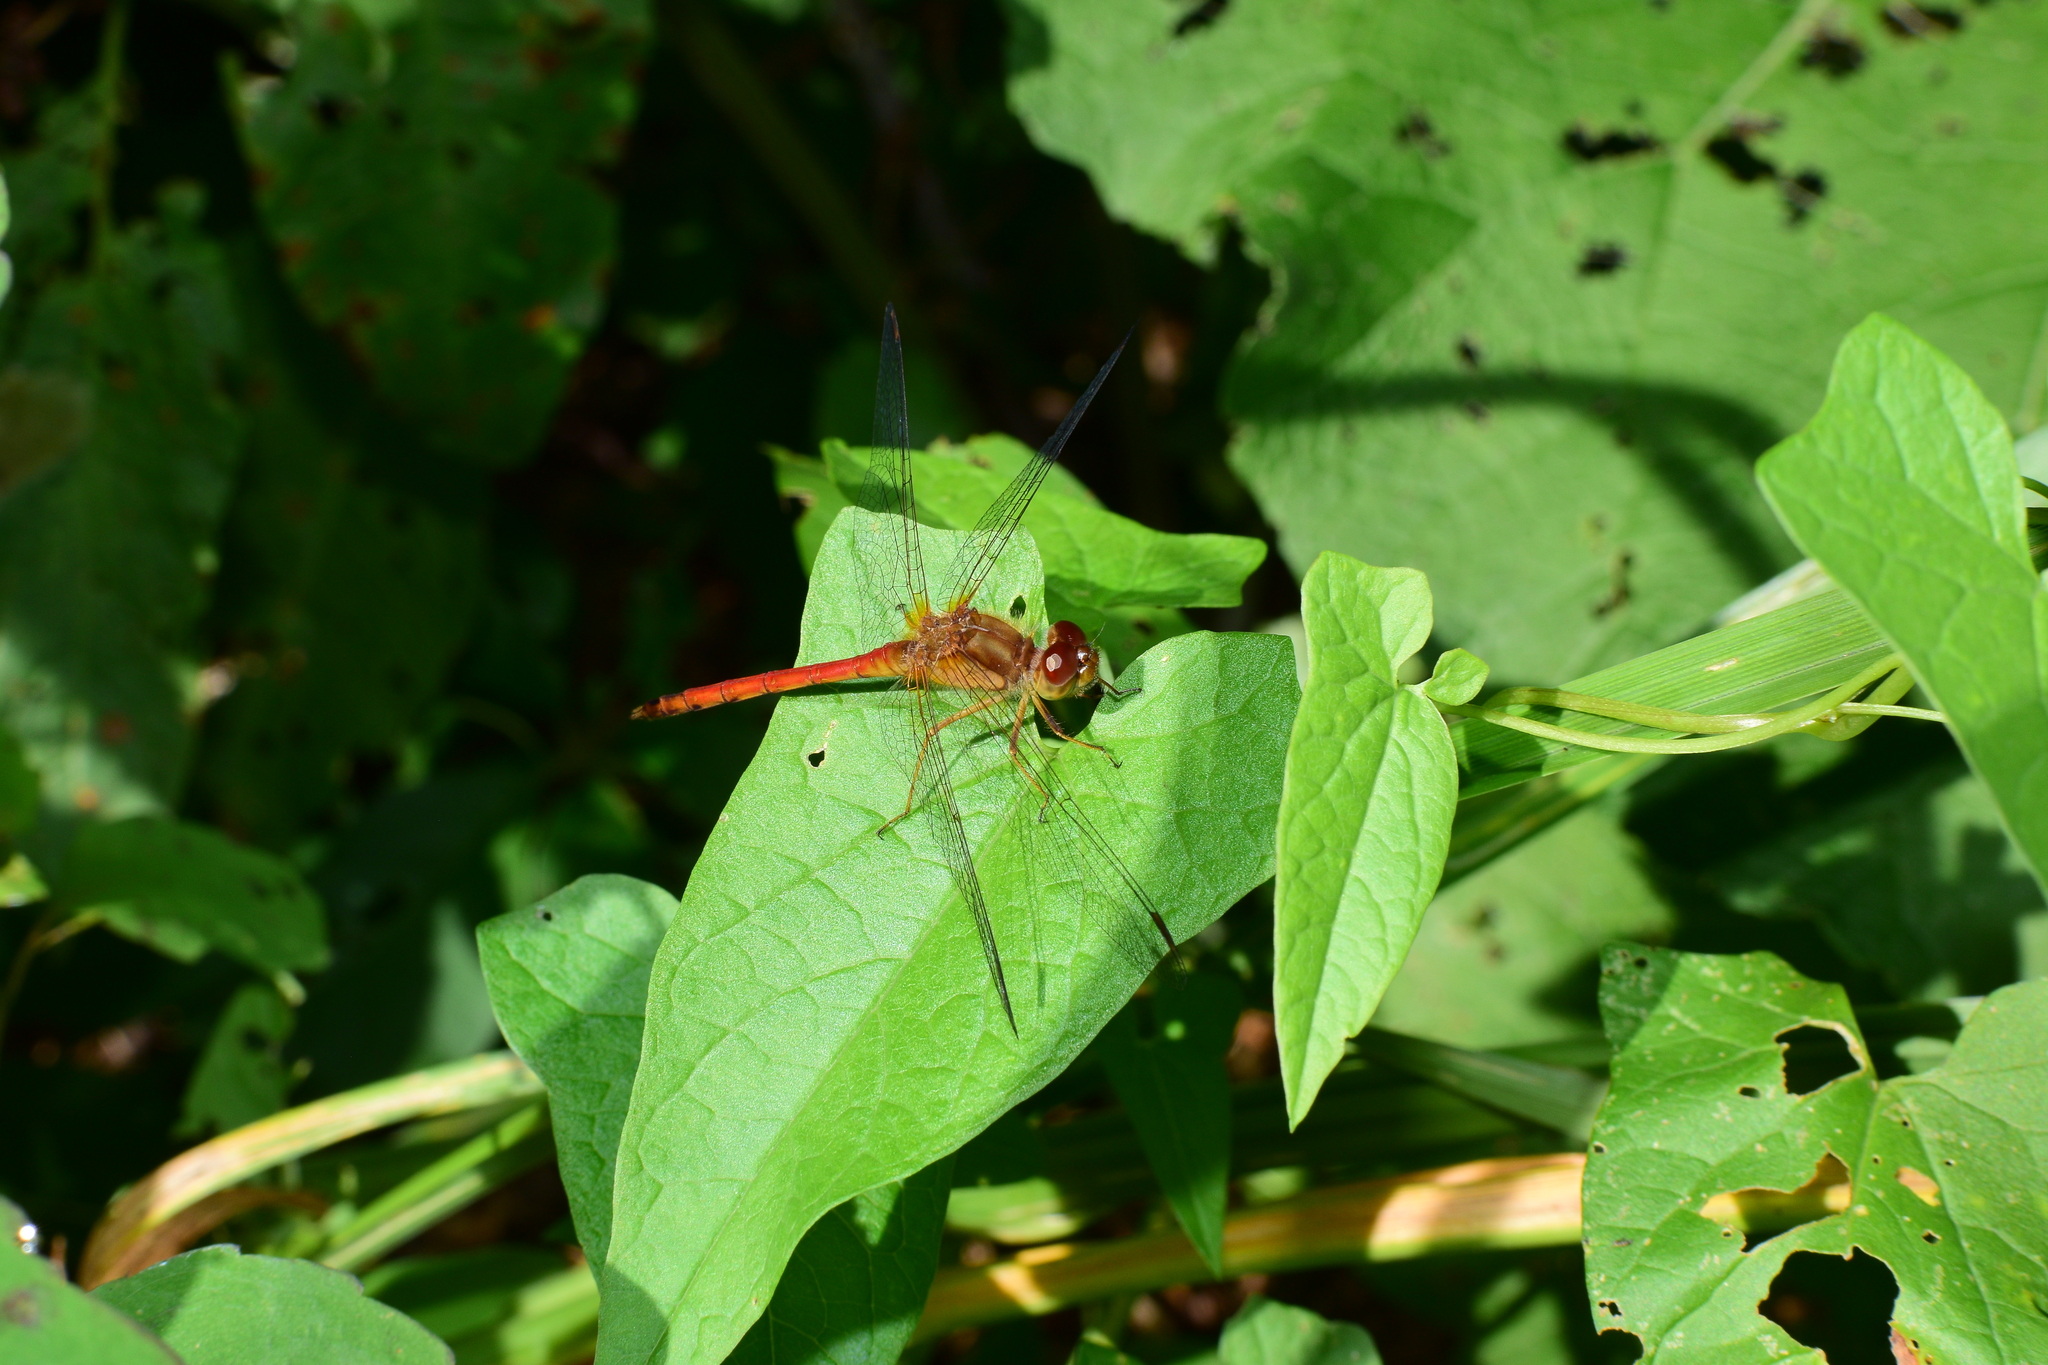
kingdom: Animalia
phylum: Arthropoda
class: Insecta
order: Odonata
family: Libellulidae
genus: Sympetrum
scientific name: Sympetrum vicinum
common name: Autumn meadowhawk
